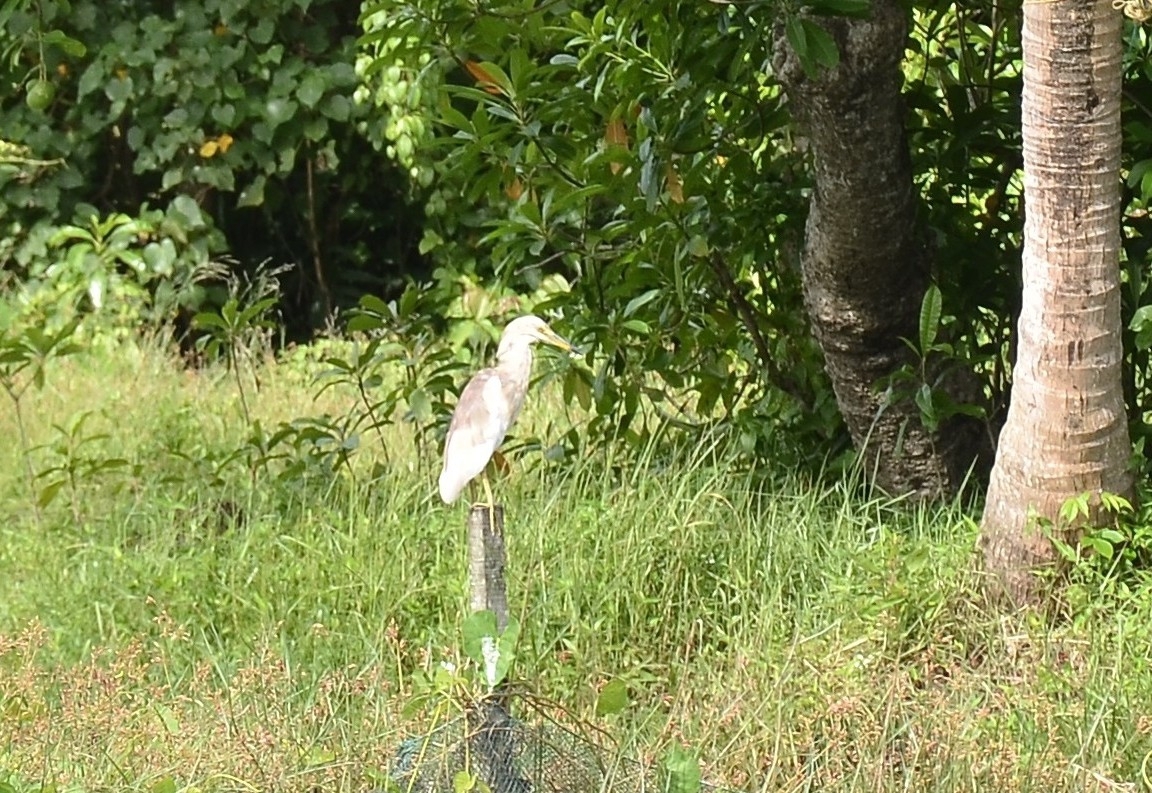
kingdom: Animalia
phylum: Chordata
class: Aves
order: Pelecaniformes
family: Ardeidae
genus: Ardeola
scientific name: Ardeola grayii
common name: Indian pond heron
